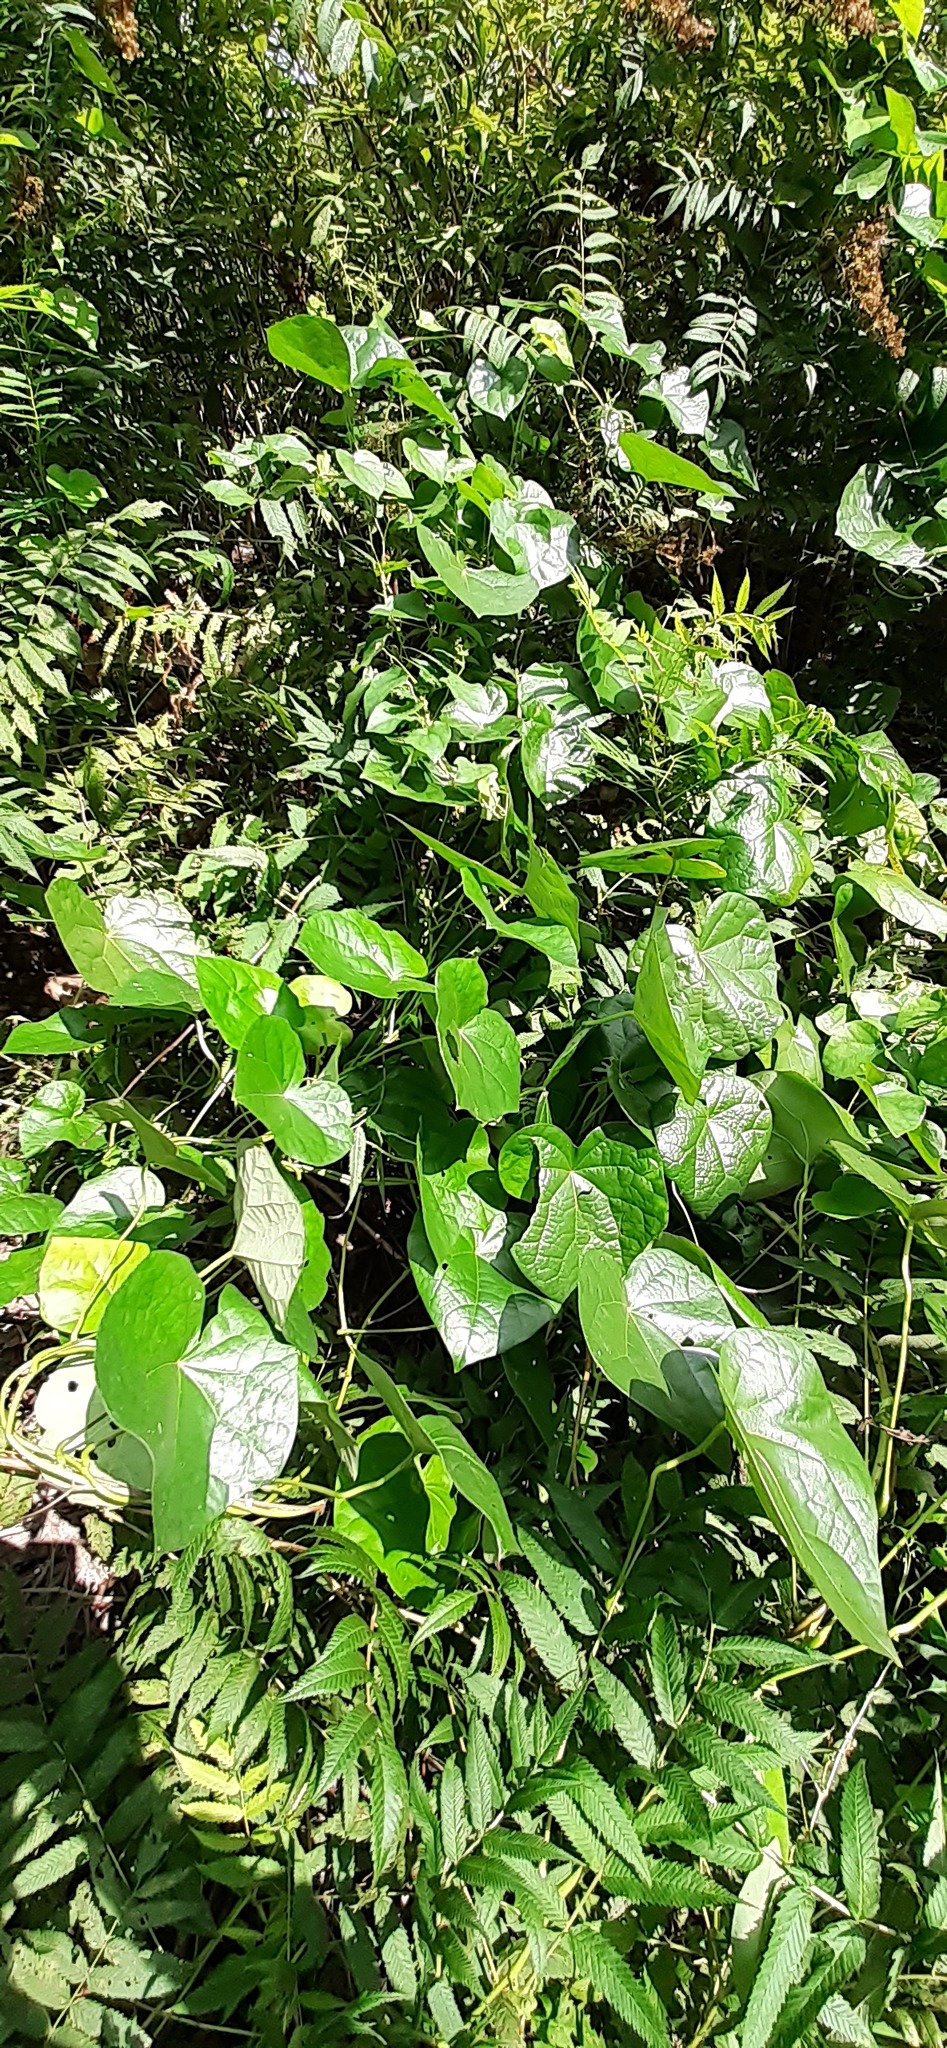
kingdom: Plantae
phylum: Tracheophyta
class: Magnoliopsida
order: Ranunculales
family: Menispermaceae
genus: Menispermum
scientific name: Menispermum dauricum
